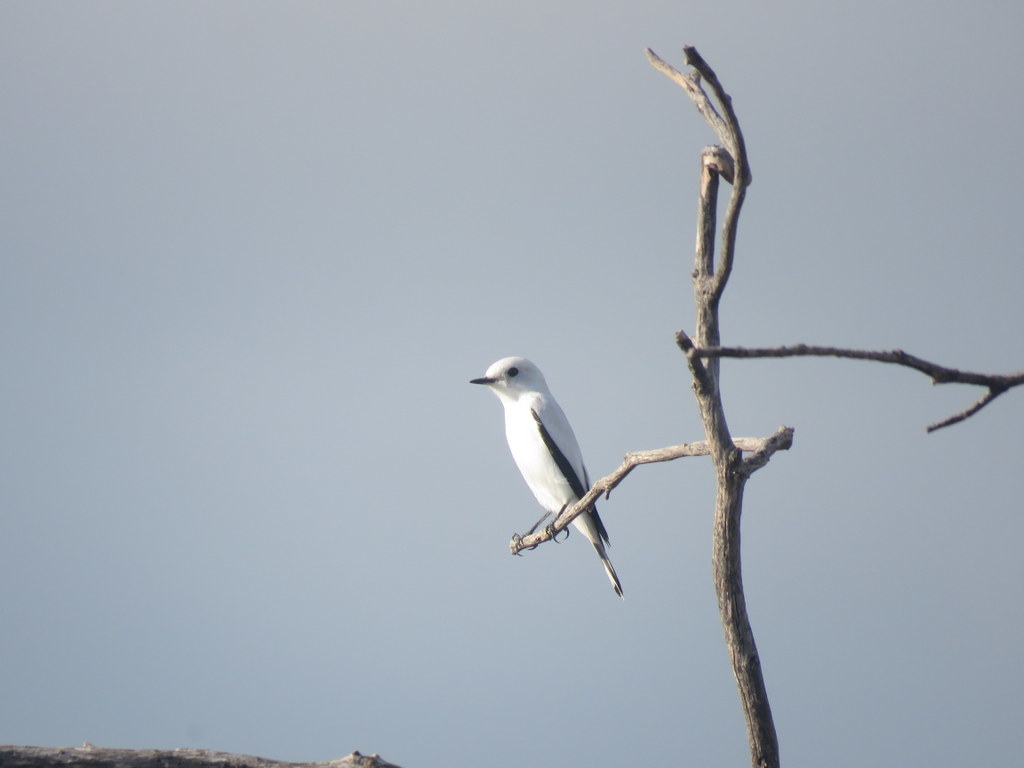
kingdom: Animalia
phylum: Chordata
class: Aves
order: Passeriformes
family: Tyrannidae
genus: Xolmis
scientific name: Xolmis irupero
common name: White monjita
